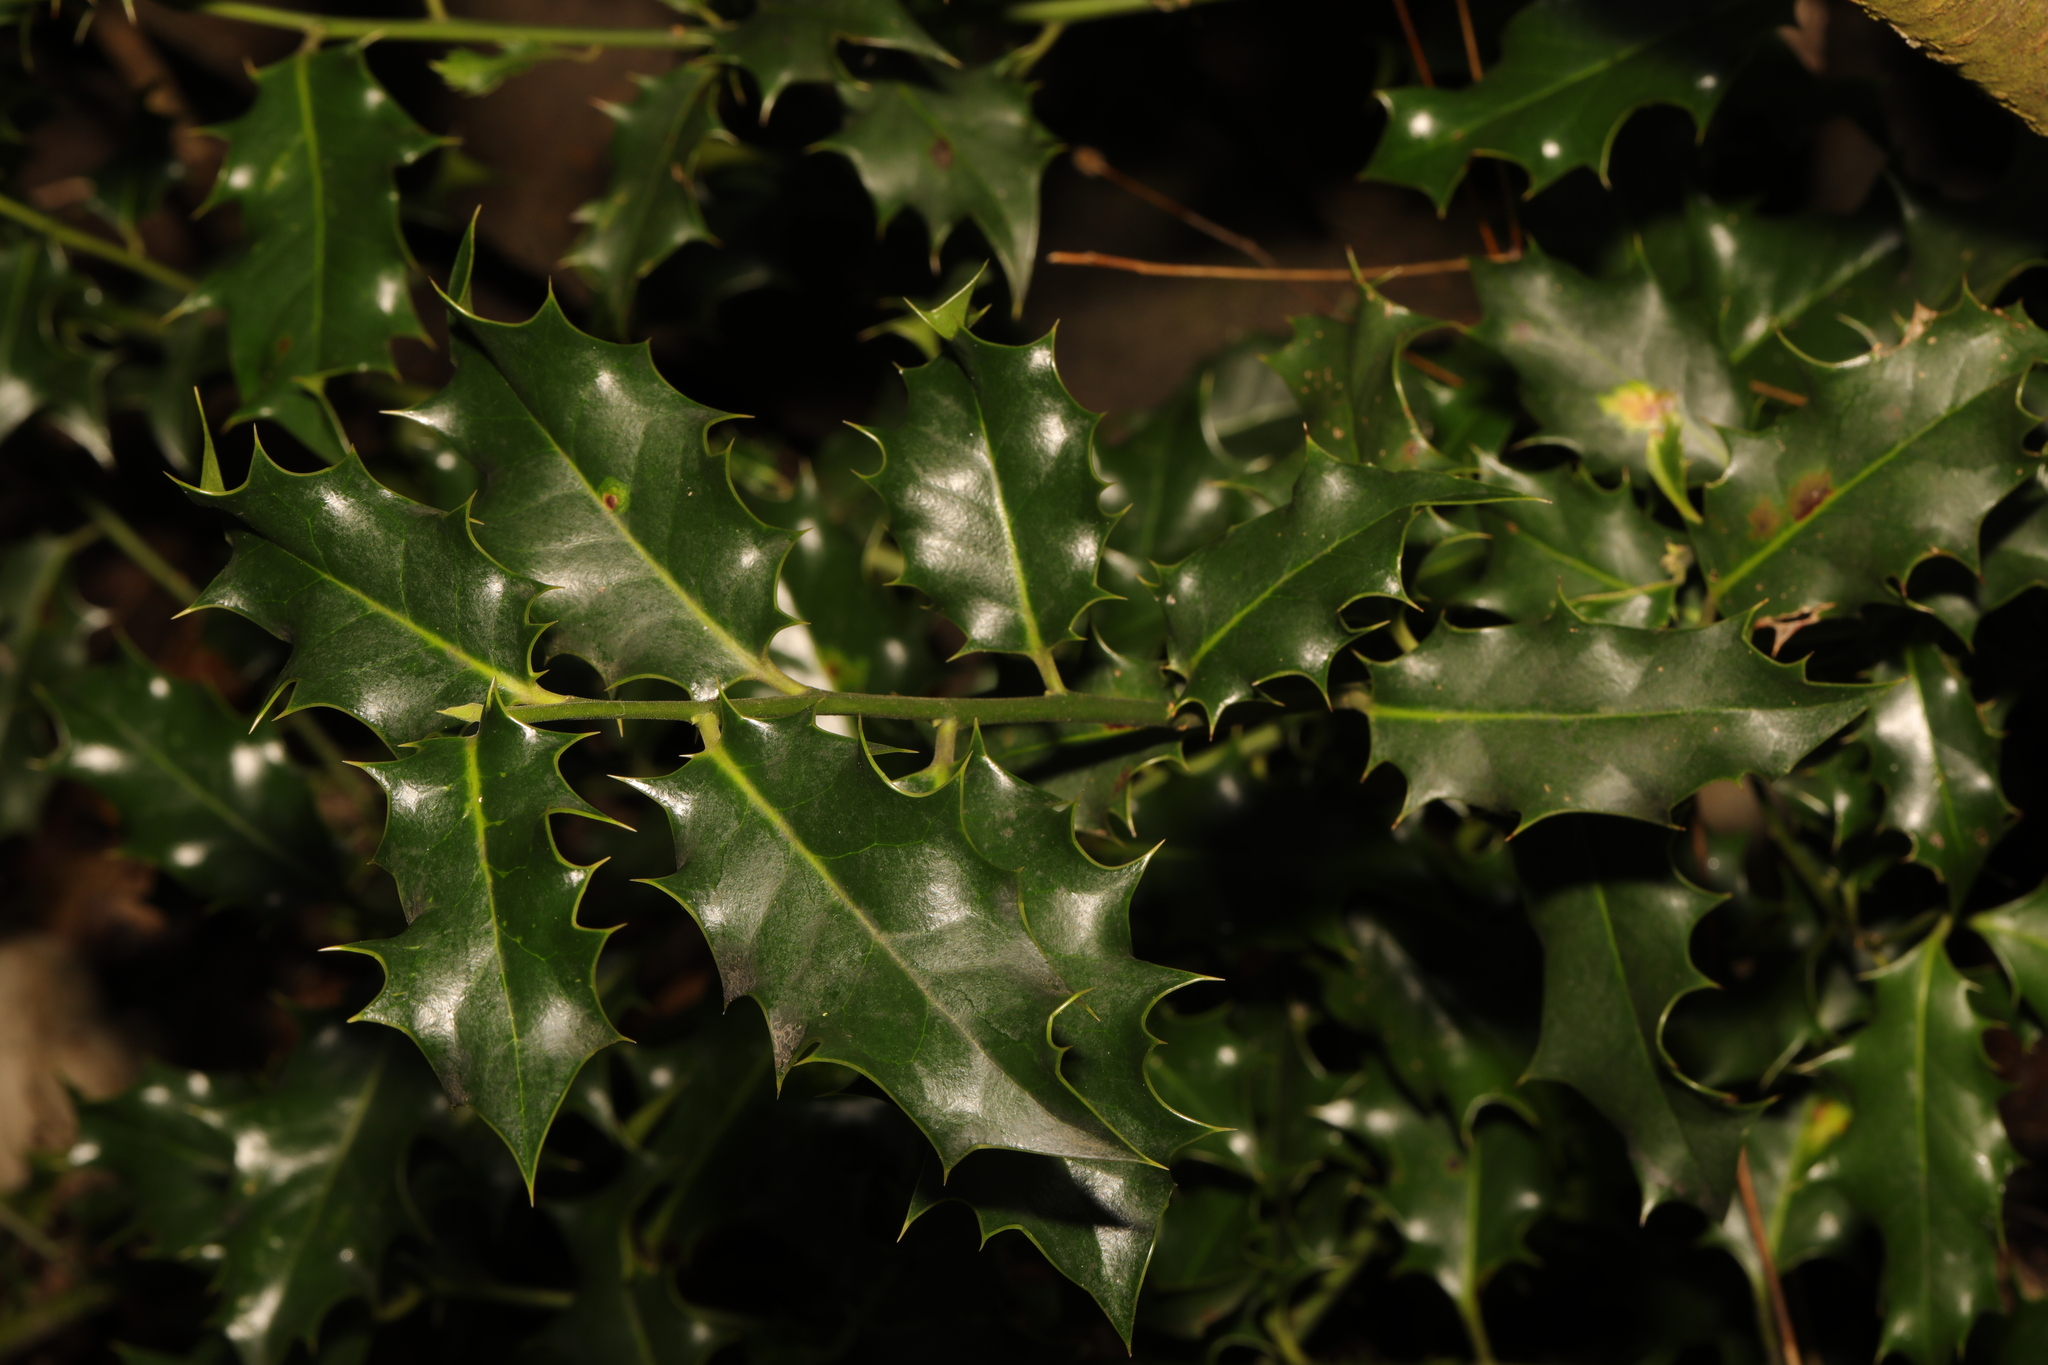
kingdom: Plantae
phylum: Tracheophyta
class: Magnoliopsida
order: Aquifoliales
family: Aquifoliaceae
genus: Ilex
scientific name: Ilex aquifolium
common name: English holly
